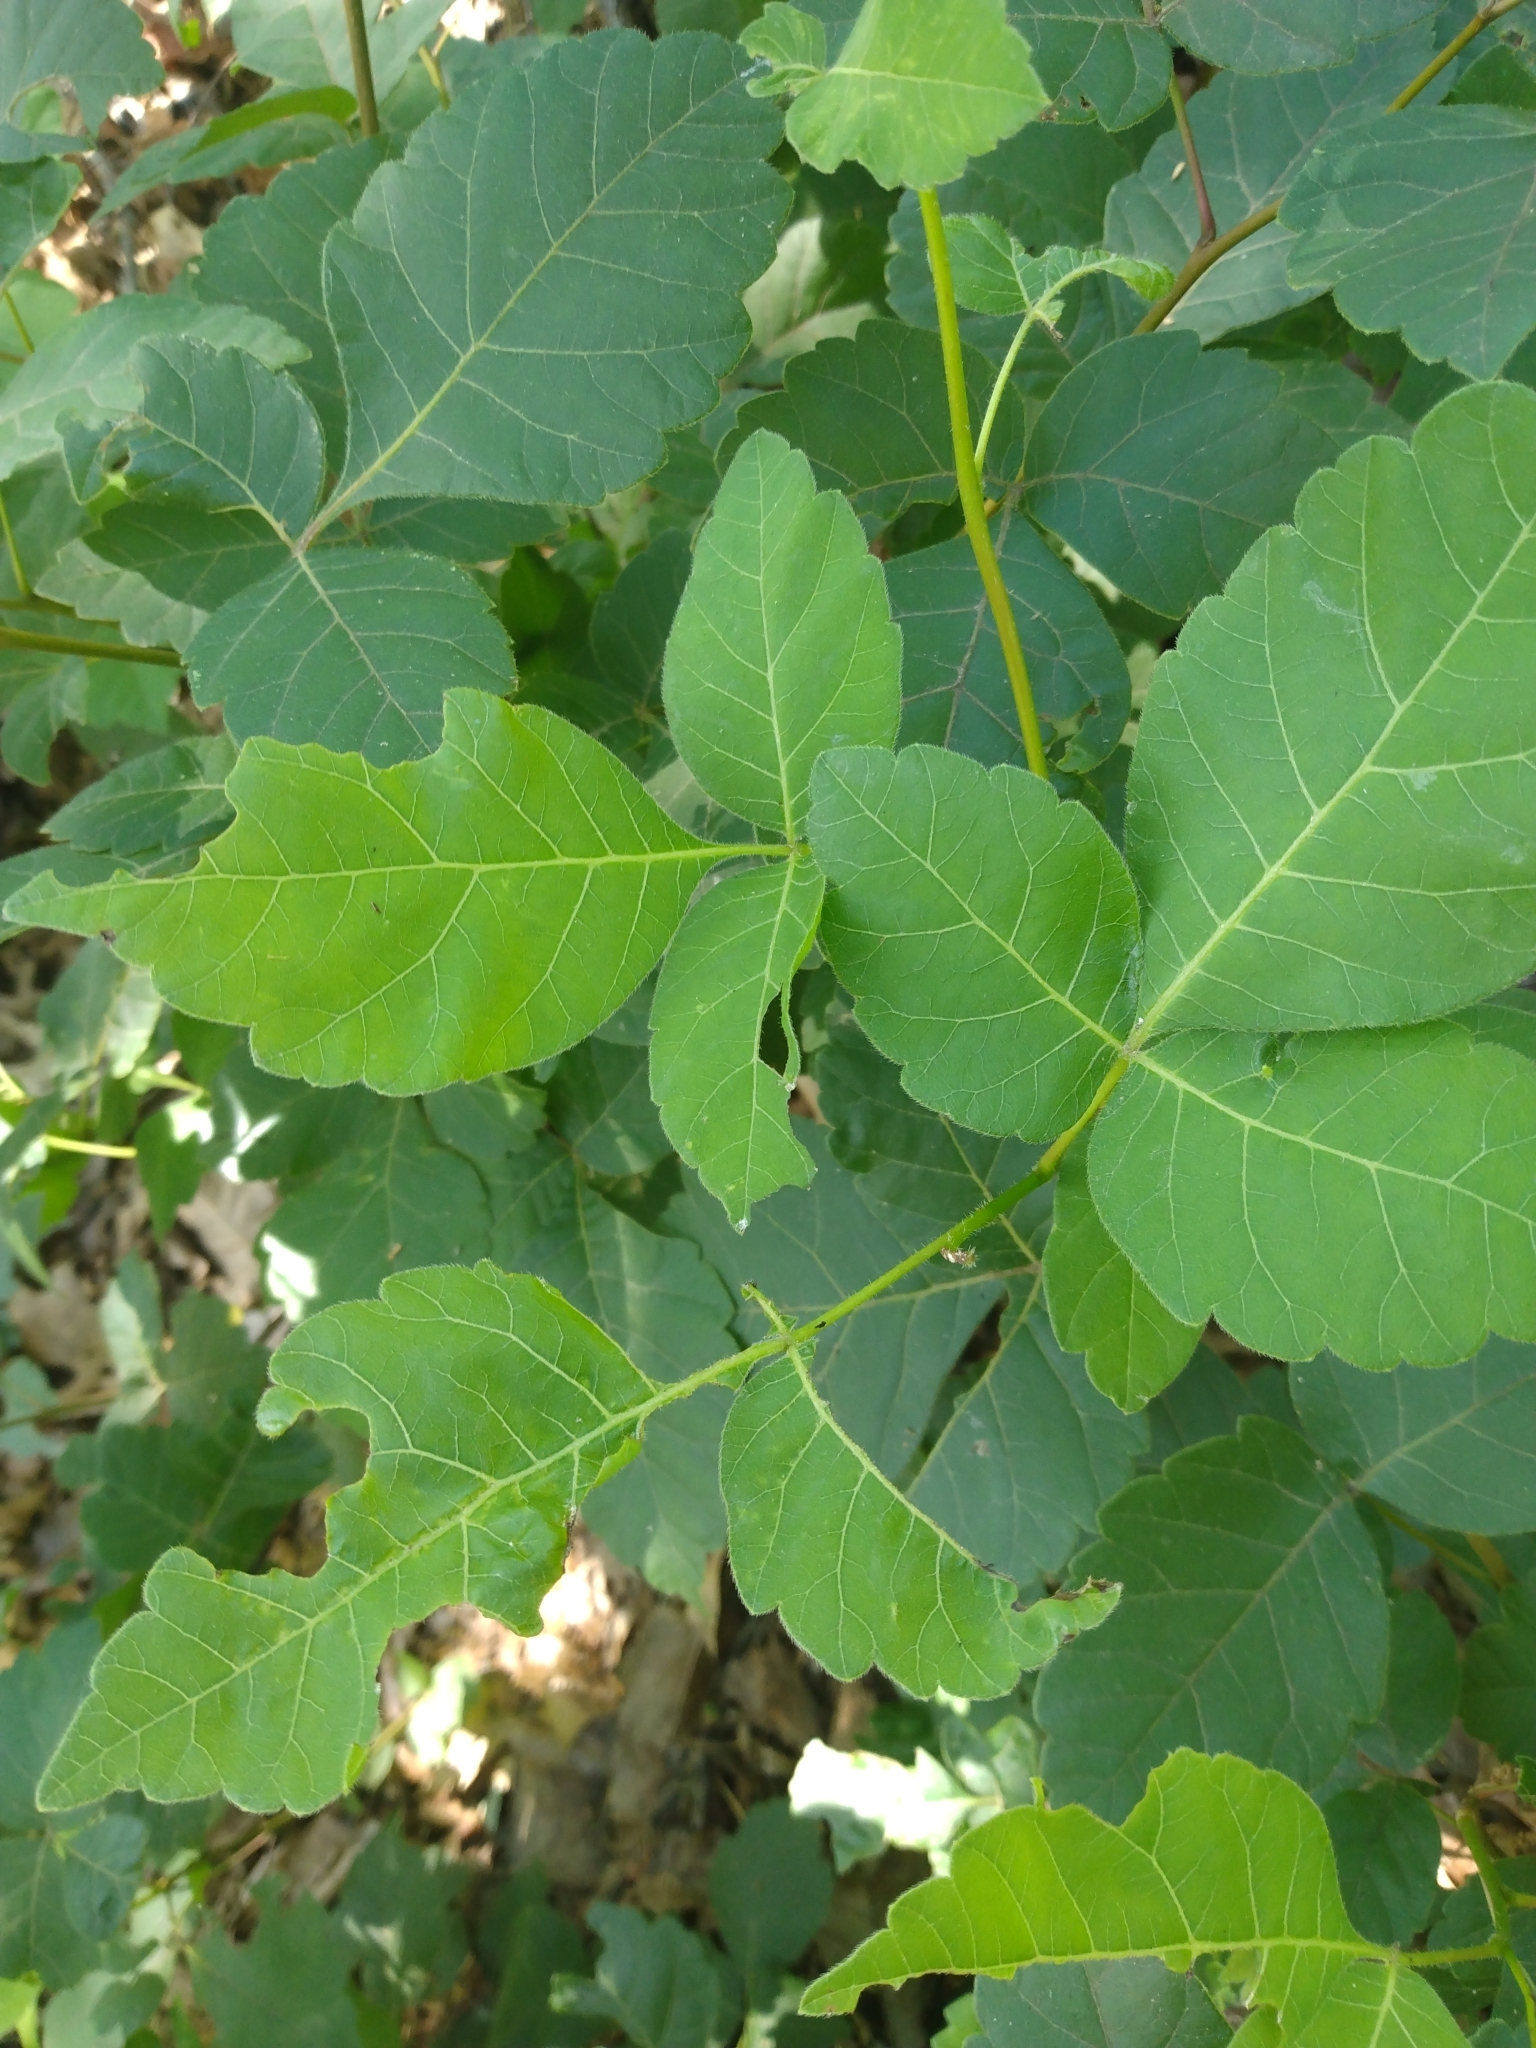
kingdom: Plantae
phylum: Tracheophyta
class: Magnoliopsida
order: Sapindales
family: Anacardiaceae
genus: Rhus
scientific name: Rhus aromatica
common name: Aromatic sumac
